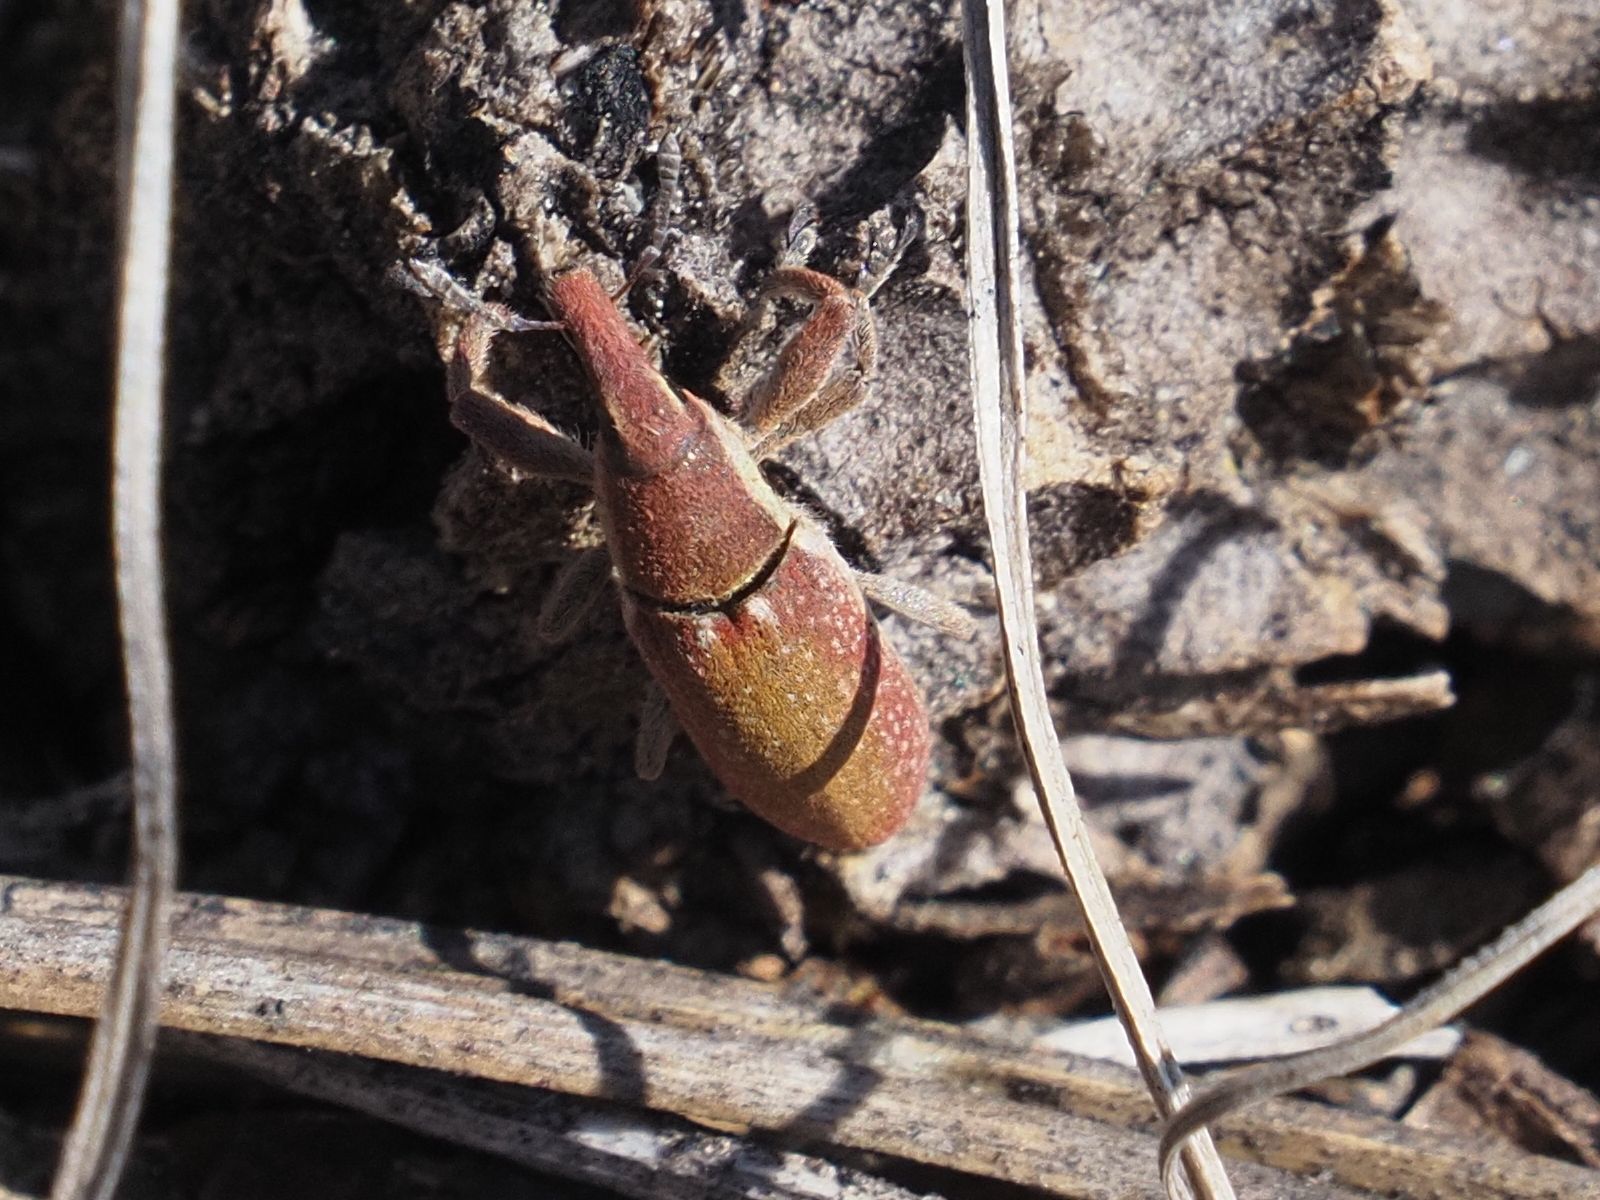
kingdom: Animalia
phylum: Arthropoda
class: Insecta
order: Coleoptera
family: Curculionidae
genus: Lixus
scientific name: Lixus vilis
